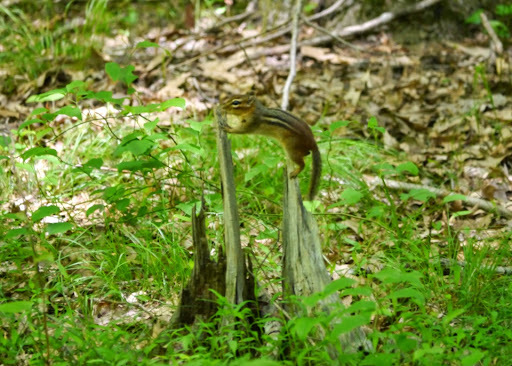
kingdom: Animalia
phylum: Chordata
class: Mammalia
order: Rodentia
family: Sciuridae
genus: Tamias
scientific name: Tamias striatus
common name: Eastern chipmunk
